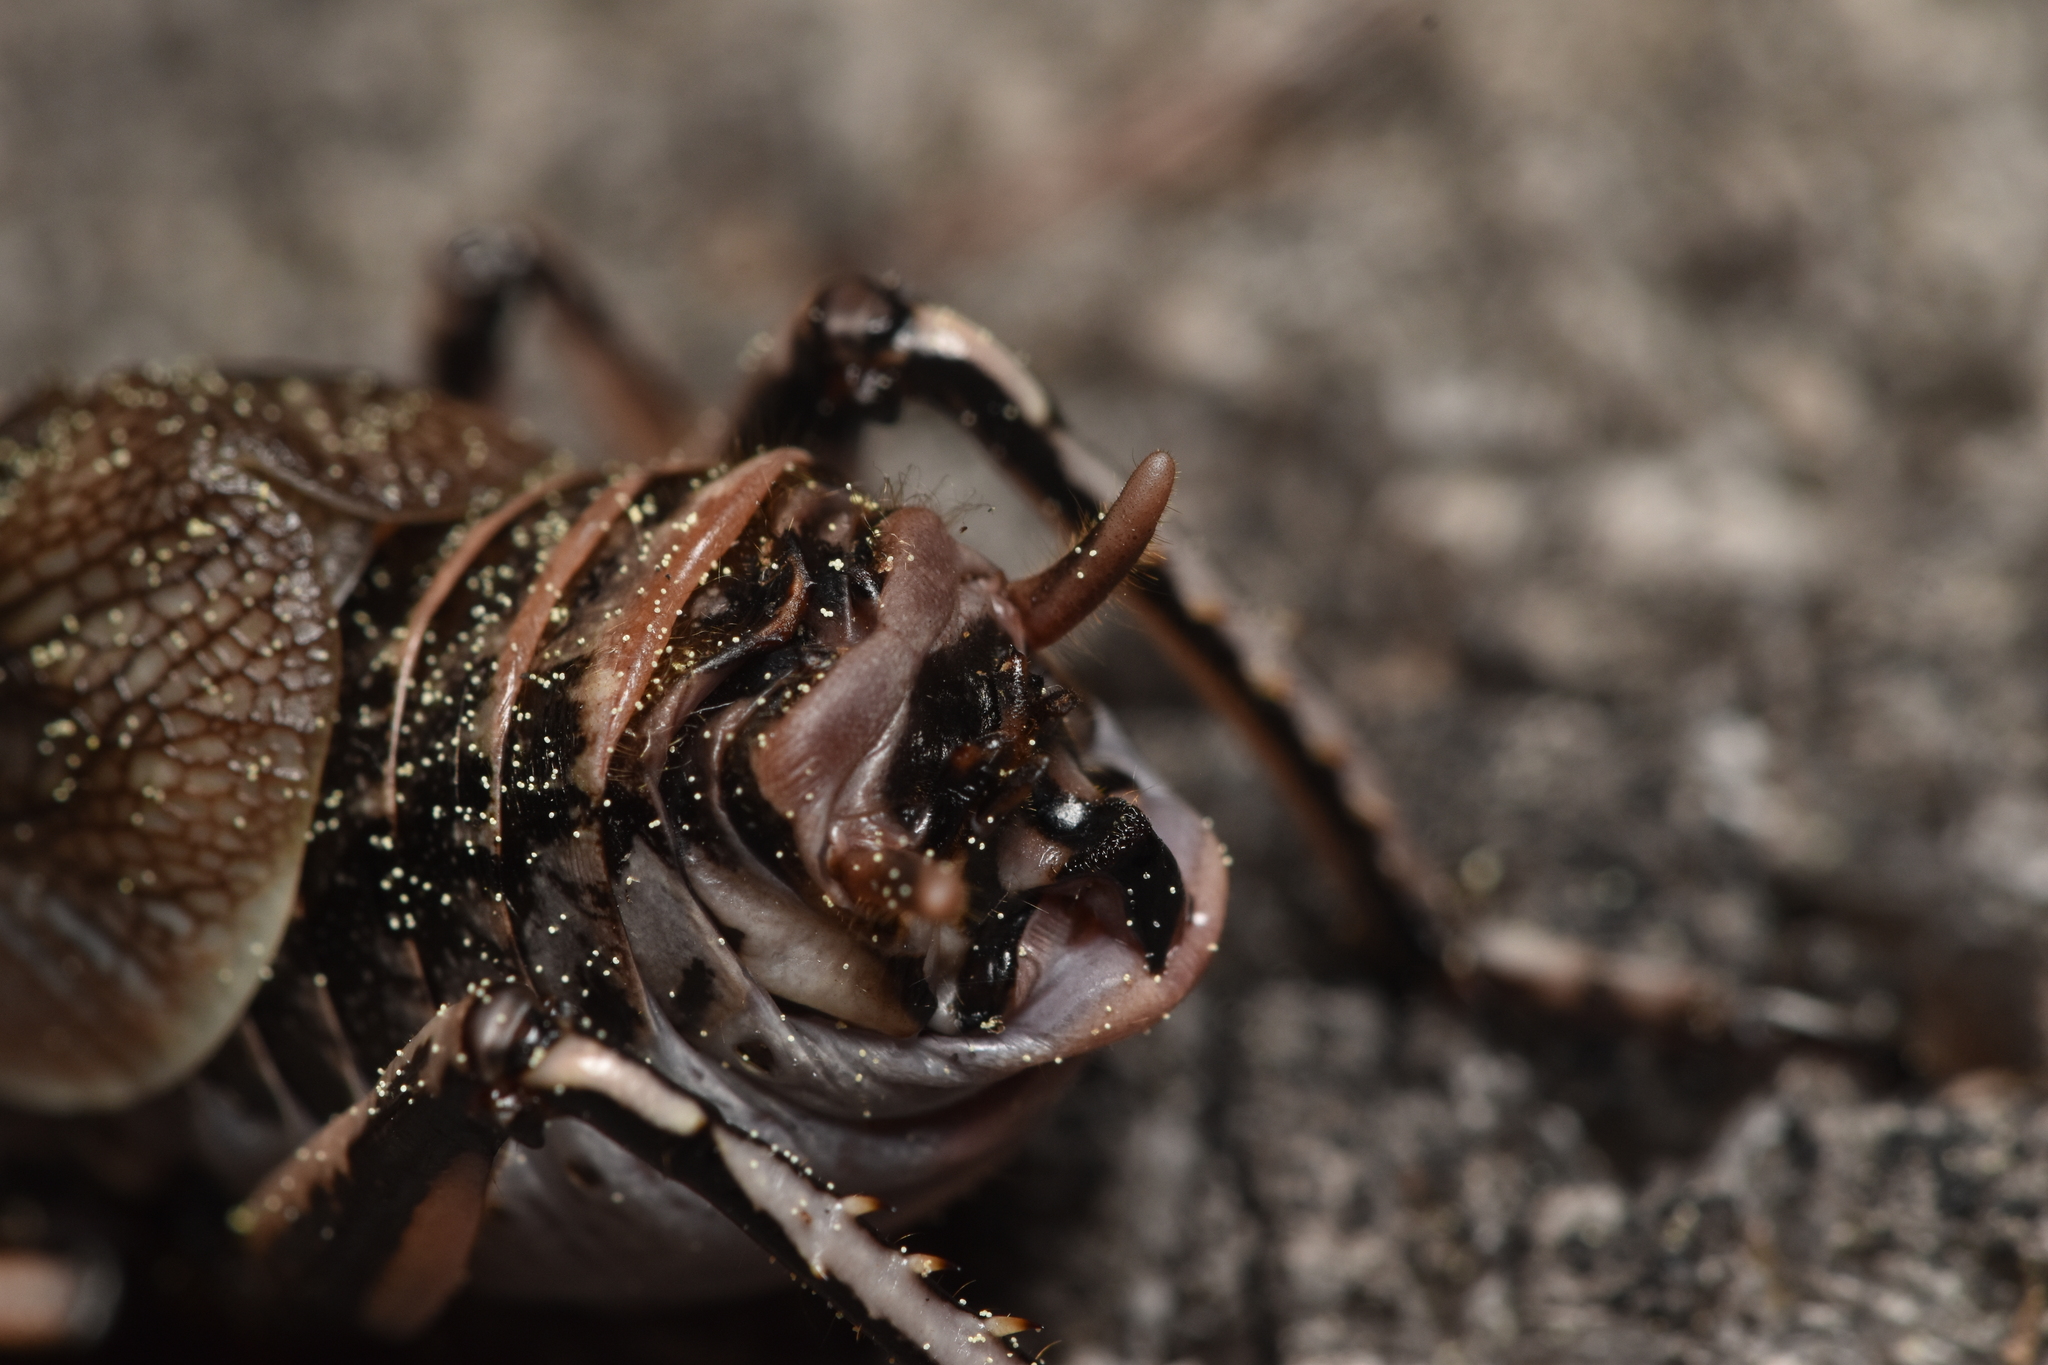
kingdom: Animalia
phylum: Arthropoda
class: Insecta
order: Orthoptera
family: Prophalangopsidae
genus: Cyphoderris
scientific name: Cyphoderris monstrosa
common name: Great grig
